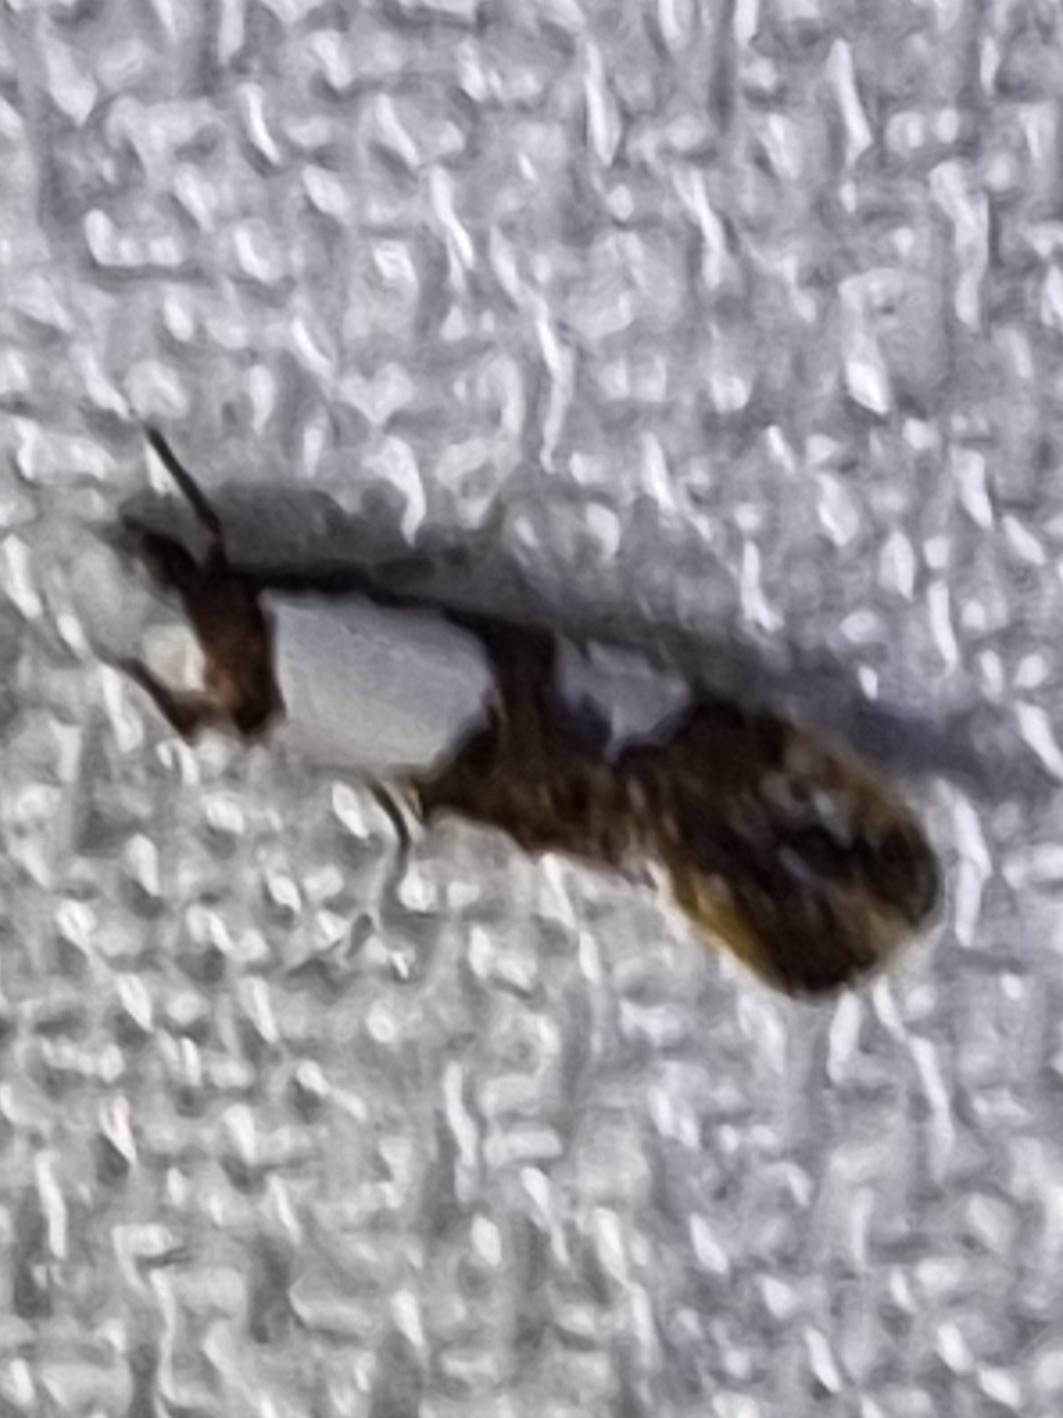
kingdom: Animalia
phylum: Arthropoda
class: Insecta
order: Lepidoptera
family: Tineidae
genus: Monopis
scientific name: Monopis meliorella
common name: Blotched monopis moth
